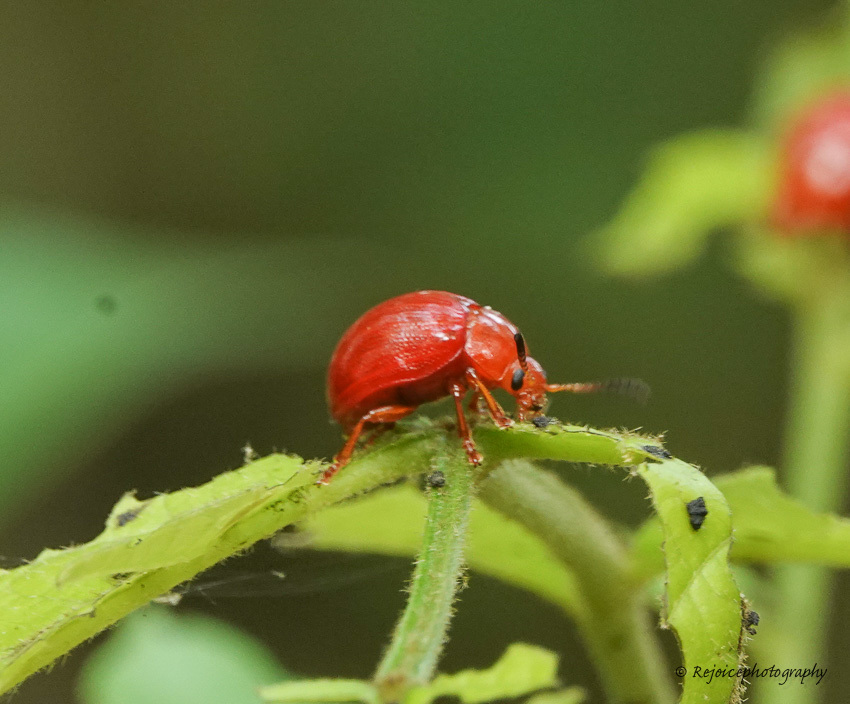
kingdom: Animalia
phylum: Arthropoda
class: Insecta
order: Coleoptera
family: Chrysomelidae
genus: Lycaria
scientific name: Lycaria
